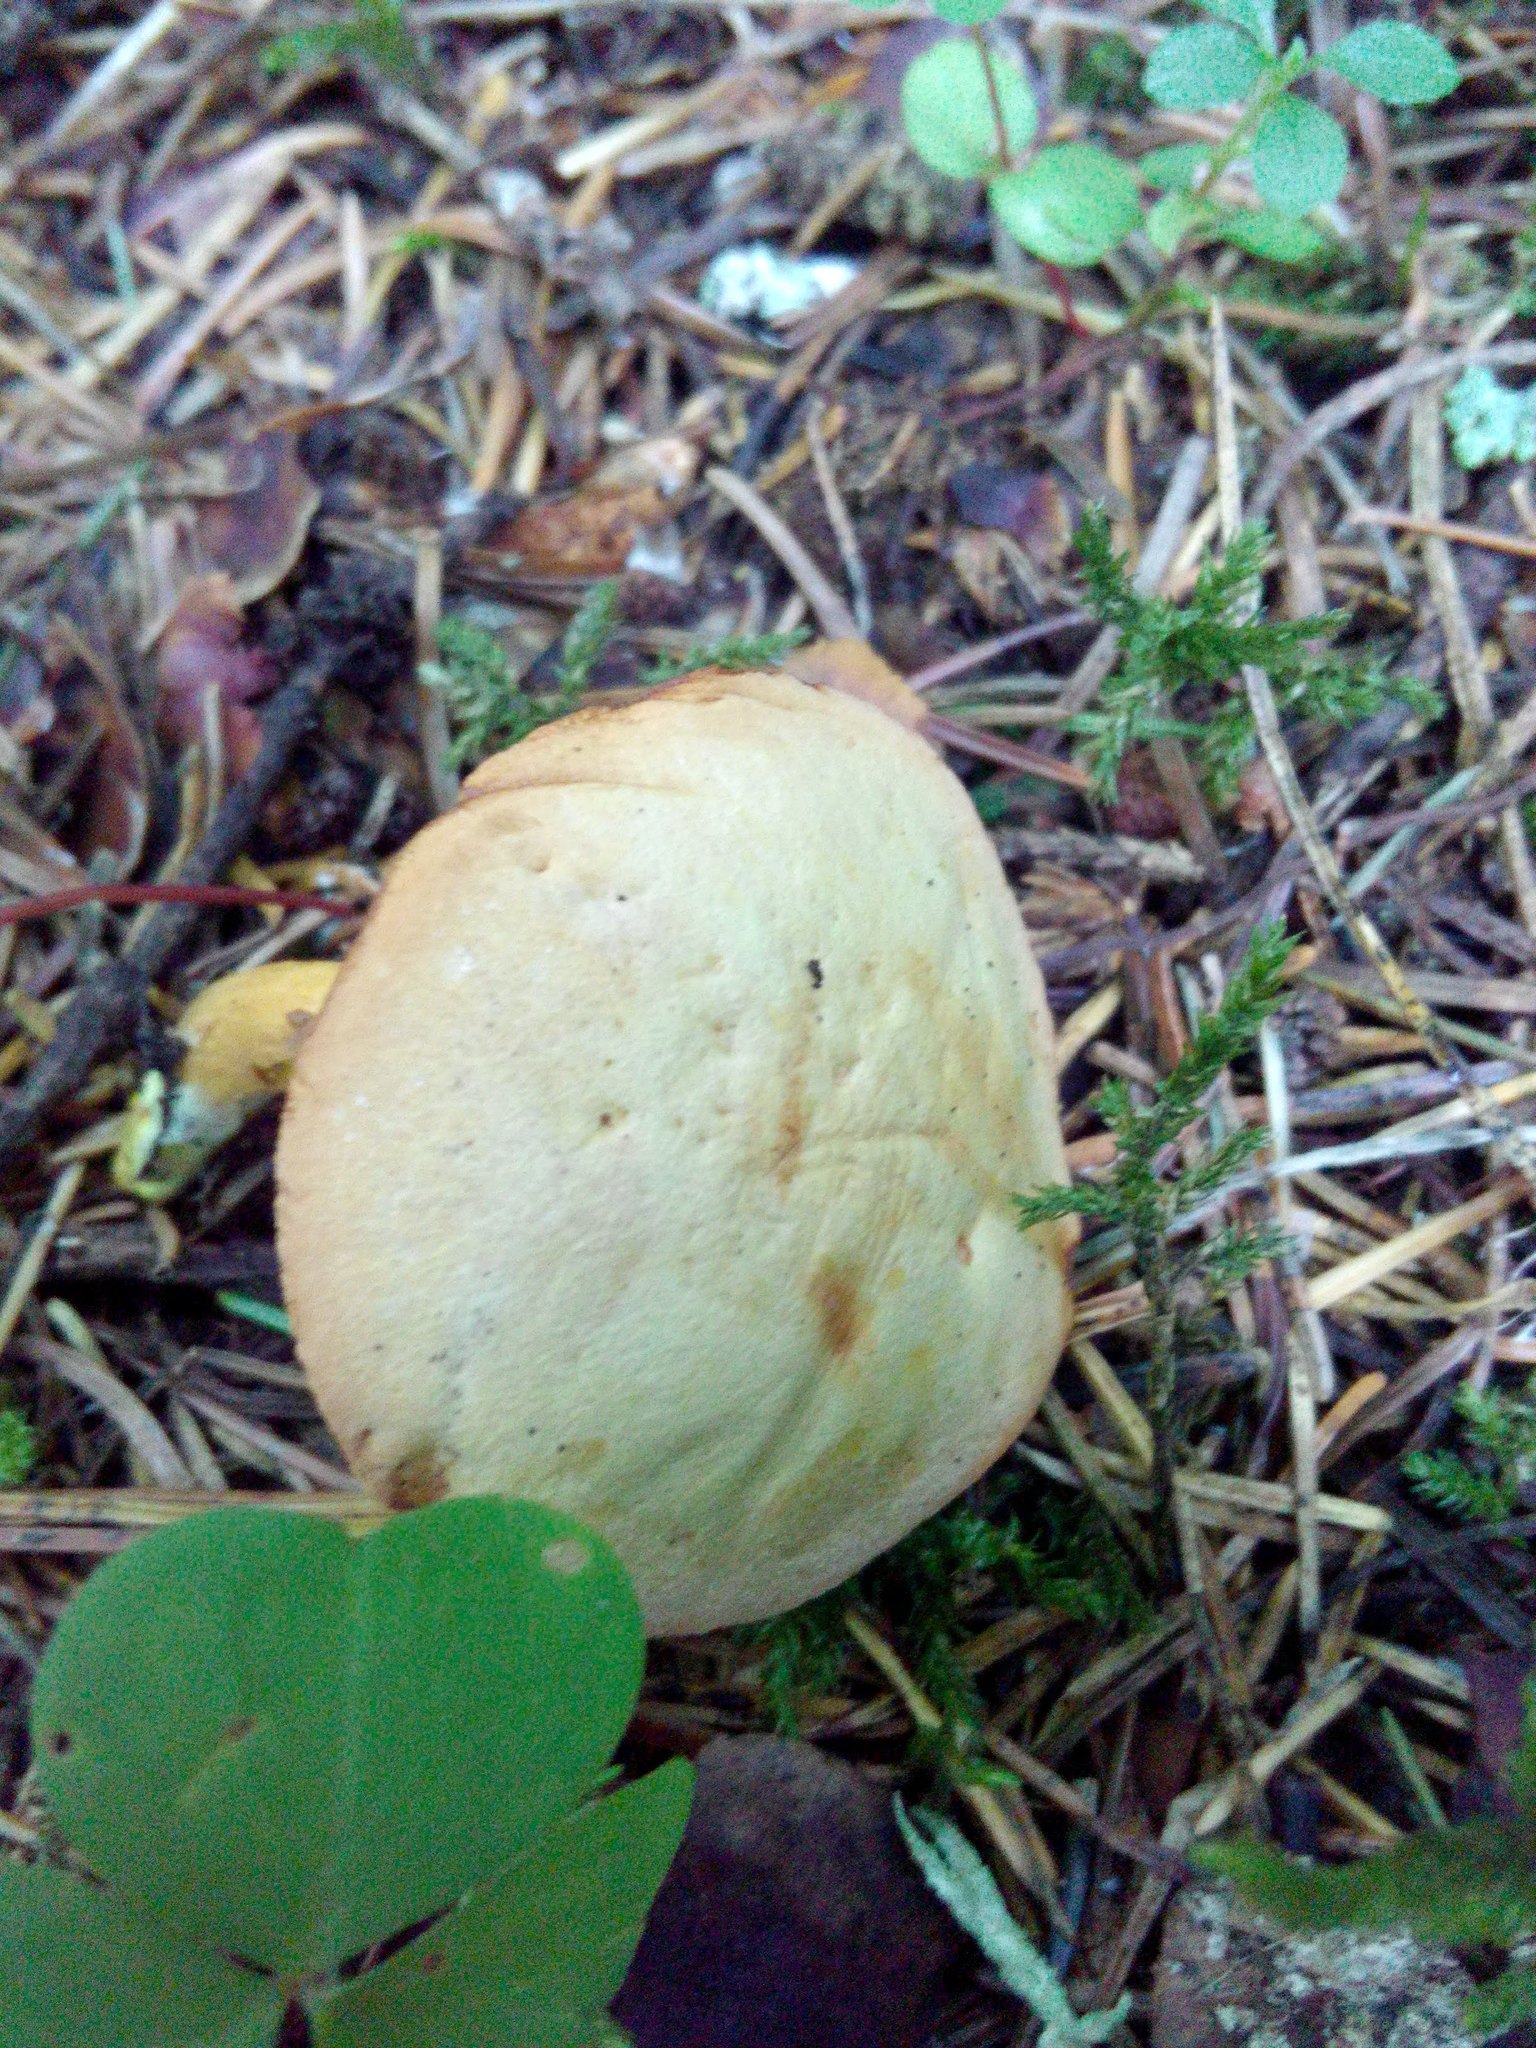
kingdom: Fungi
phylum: Basidiomycota
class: Agaricomycetes
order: Boletales
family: Boletaceae
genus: Chalciporus
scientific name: Chalciporus piperatus
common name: Peppery bolete
